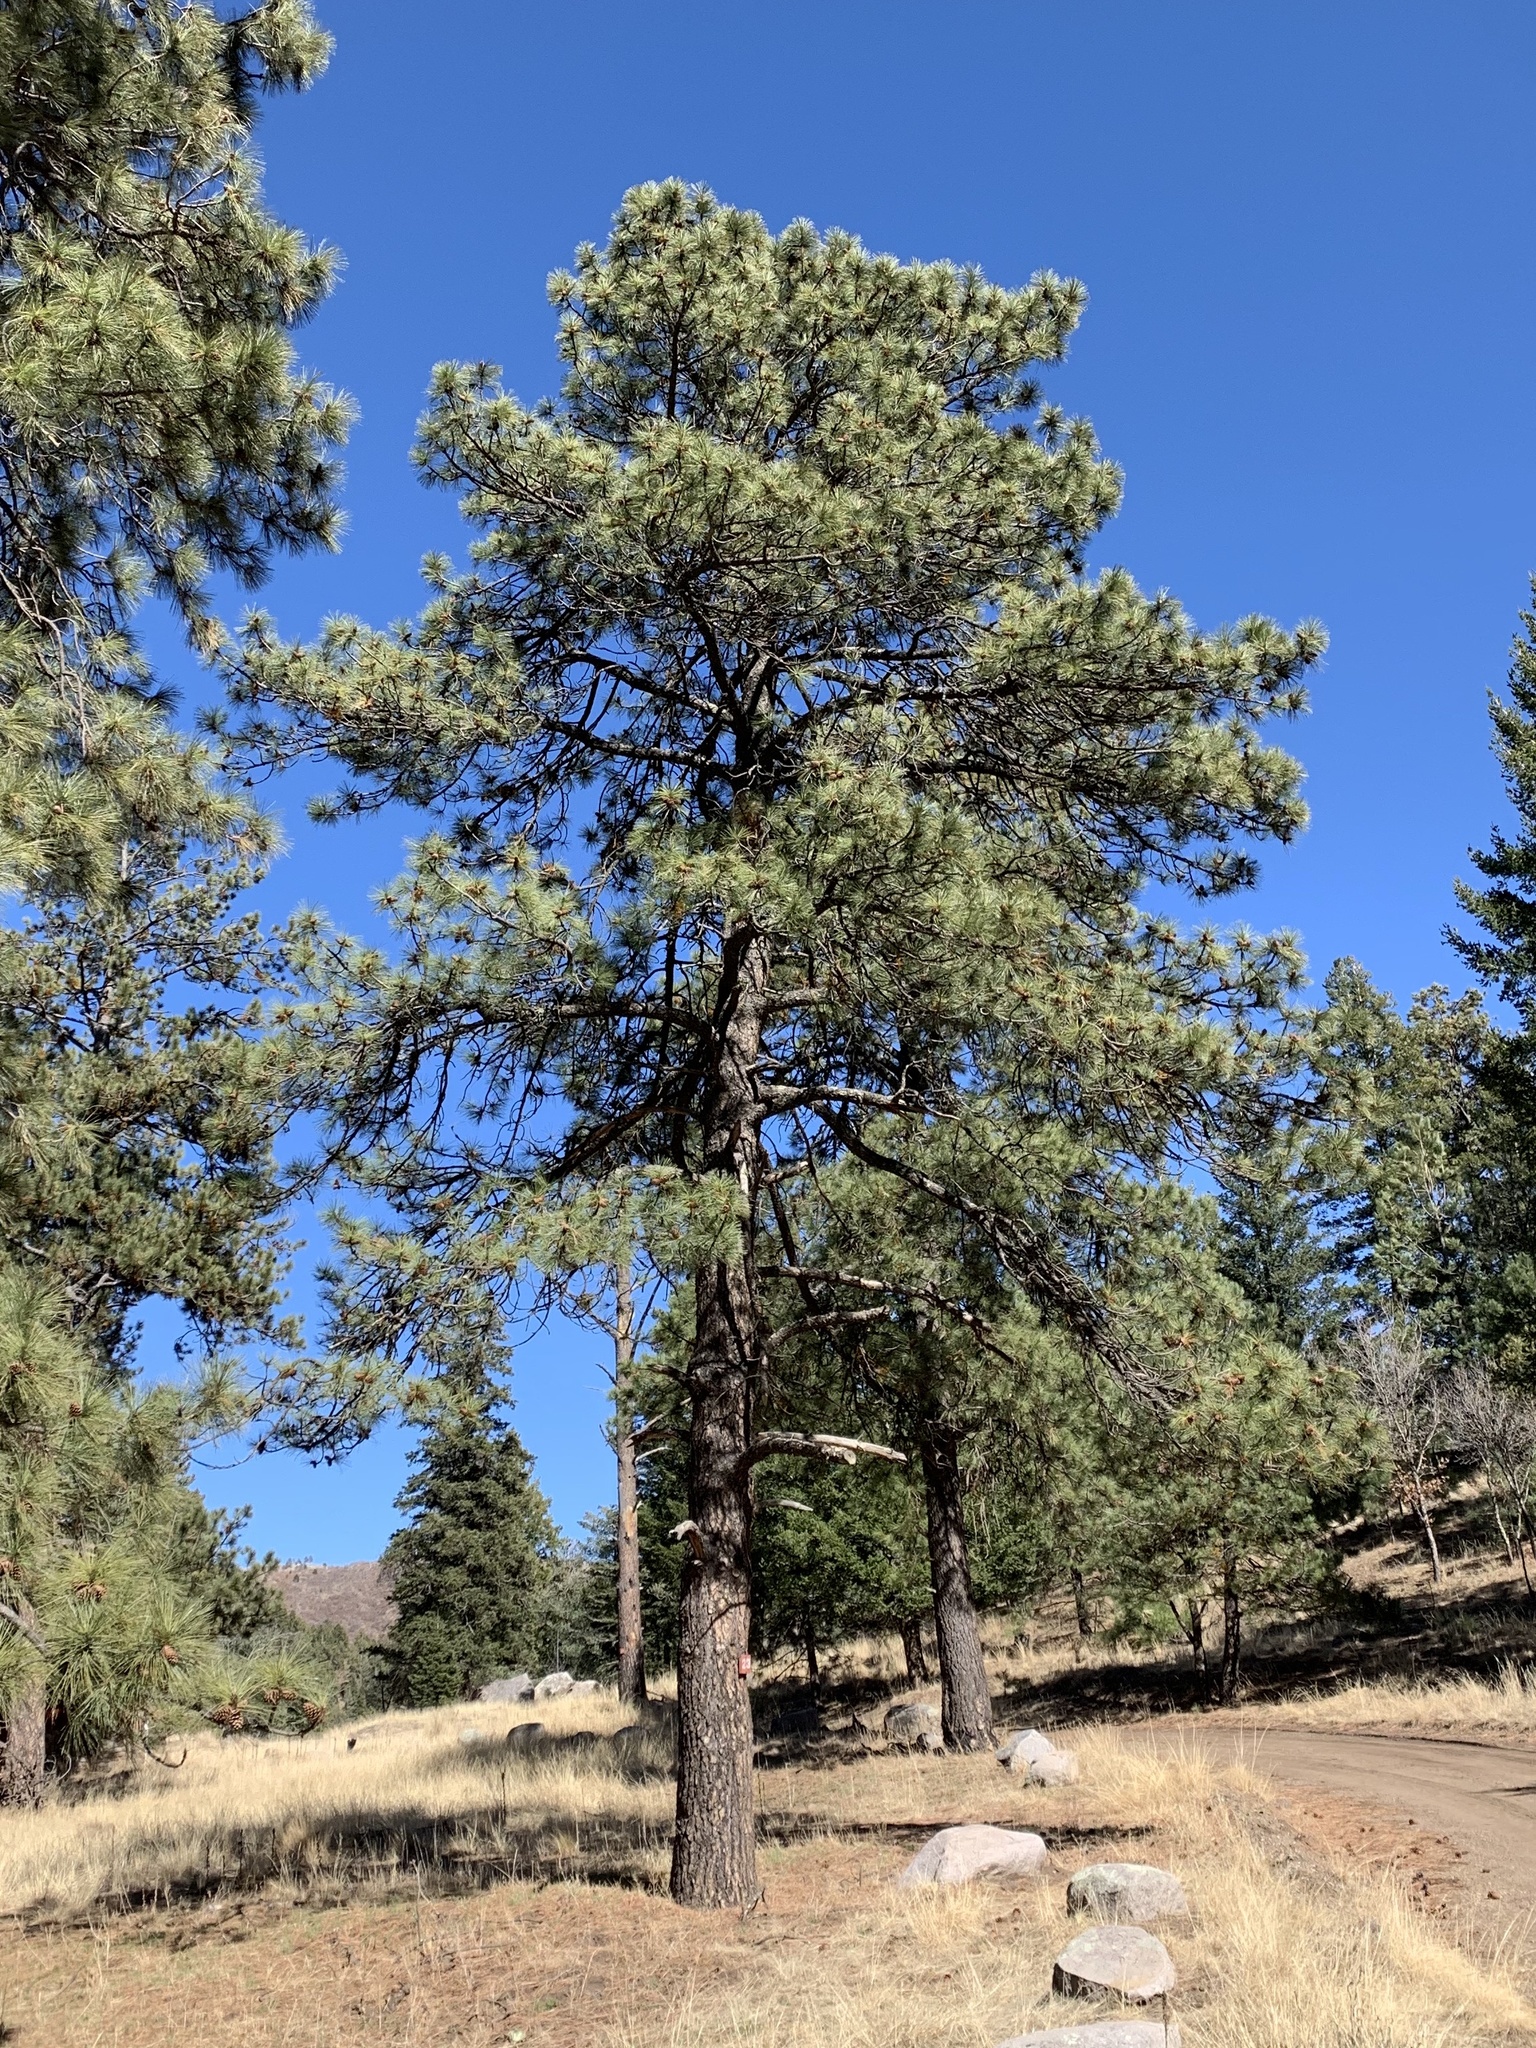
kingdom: Plantae
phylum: Tracheophyta
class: Pinopsida
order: Pinales
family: Pinaceae
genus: Pinus
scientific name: Pinus ponderosa
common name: Western yellow-pine
